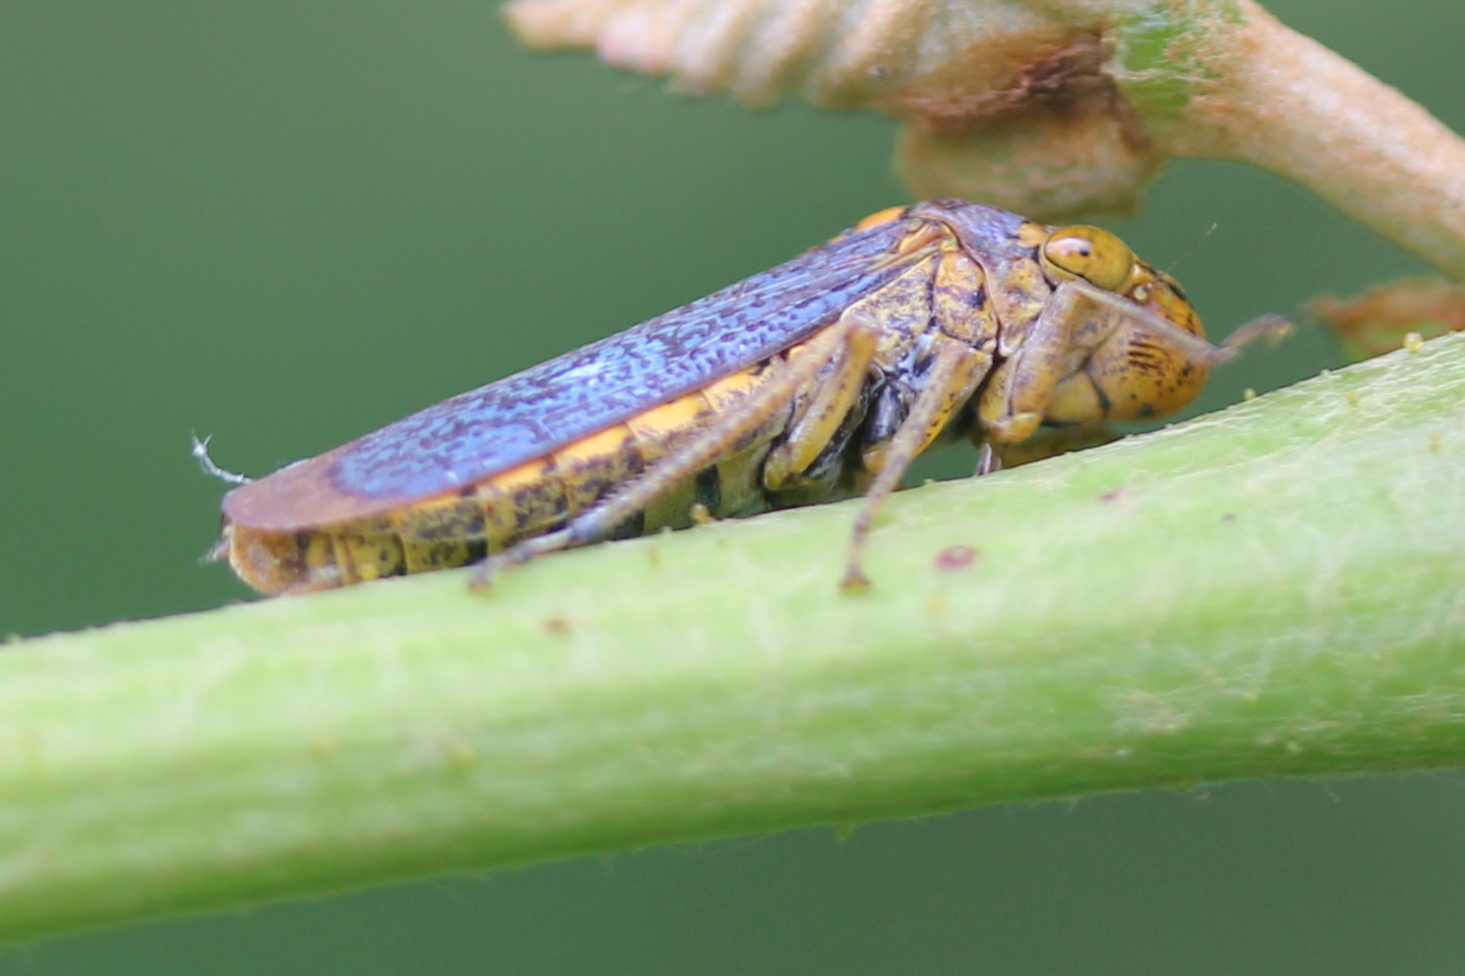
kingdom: Animalia
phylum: Arthropoda
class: Insecta
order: Hemiptera
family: Cicadellidae
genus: Oncometopia
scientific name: Oncometopia orbona
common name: Broad-headed sharpshooter
